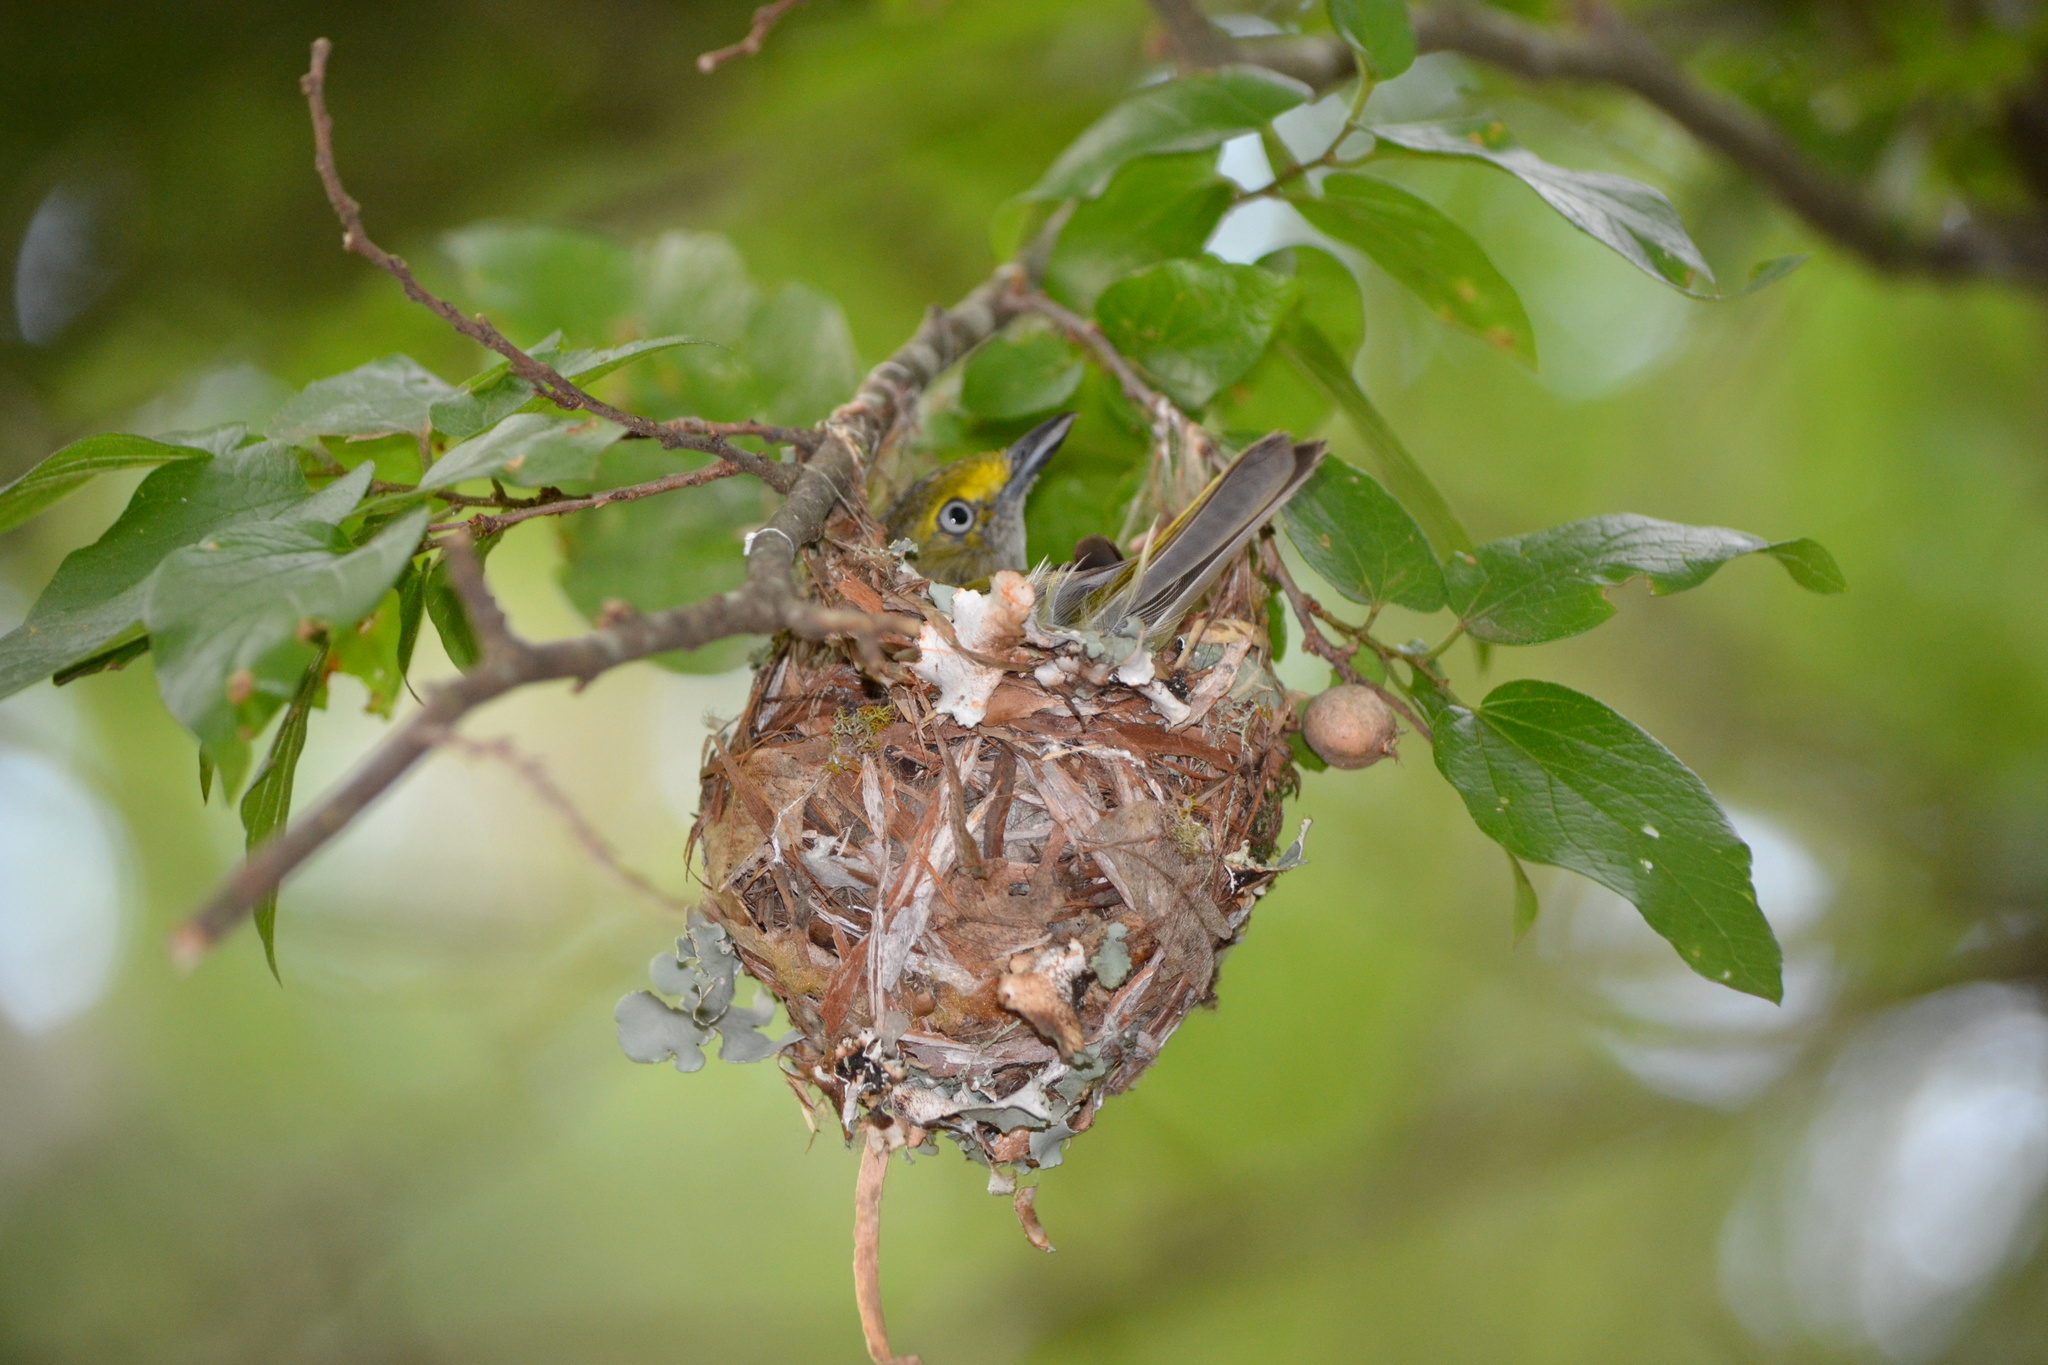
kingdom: Animalia
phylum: Chordata
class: Aves
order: Passeriformes
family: Vireonidae
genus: Vireo
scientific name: Vireo griseus
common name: White-eyed vireo
